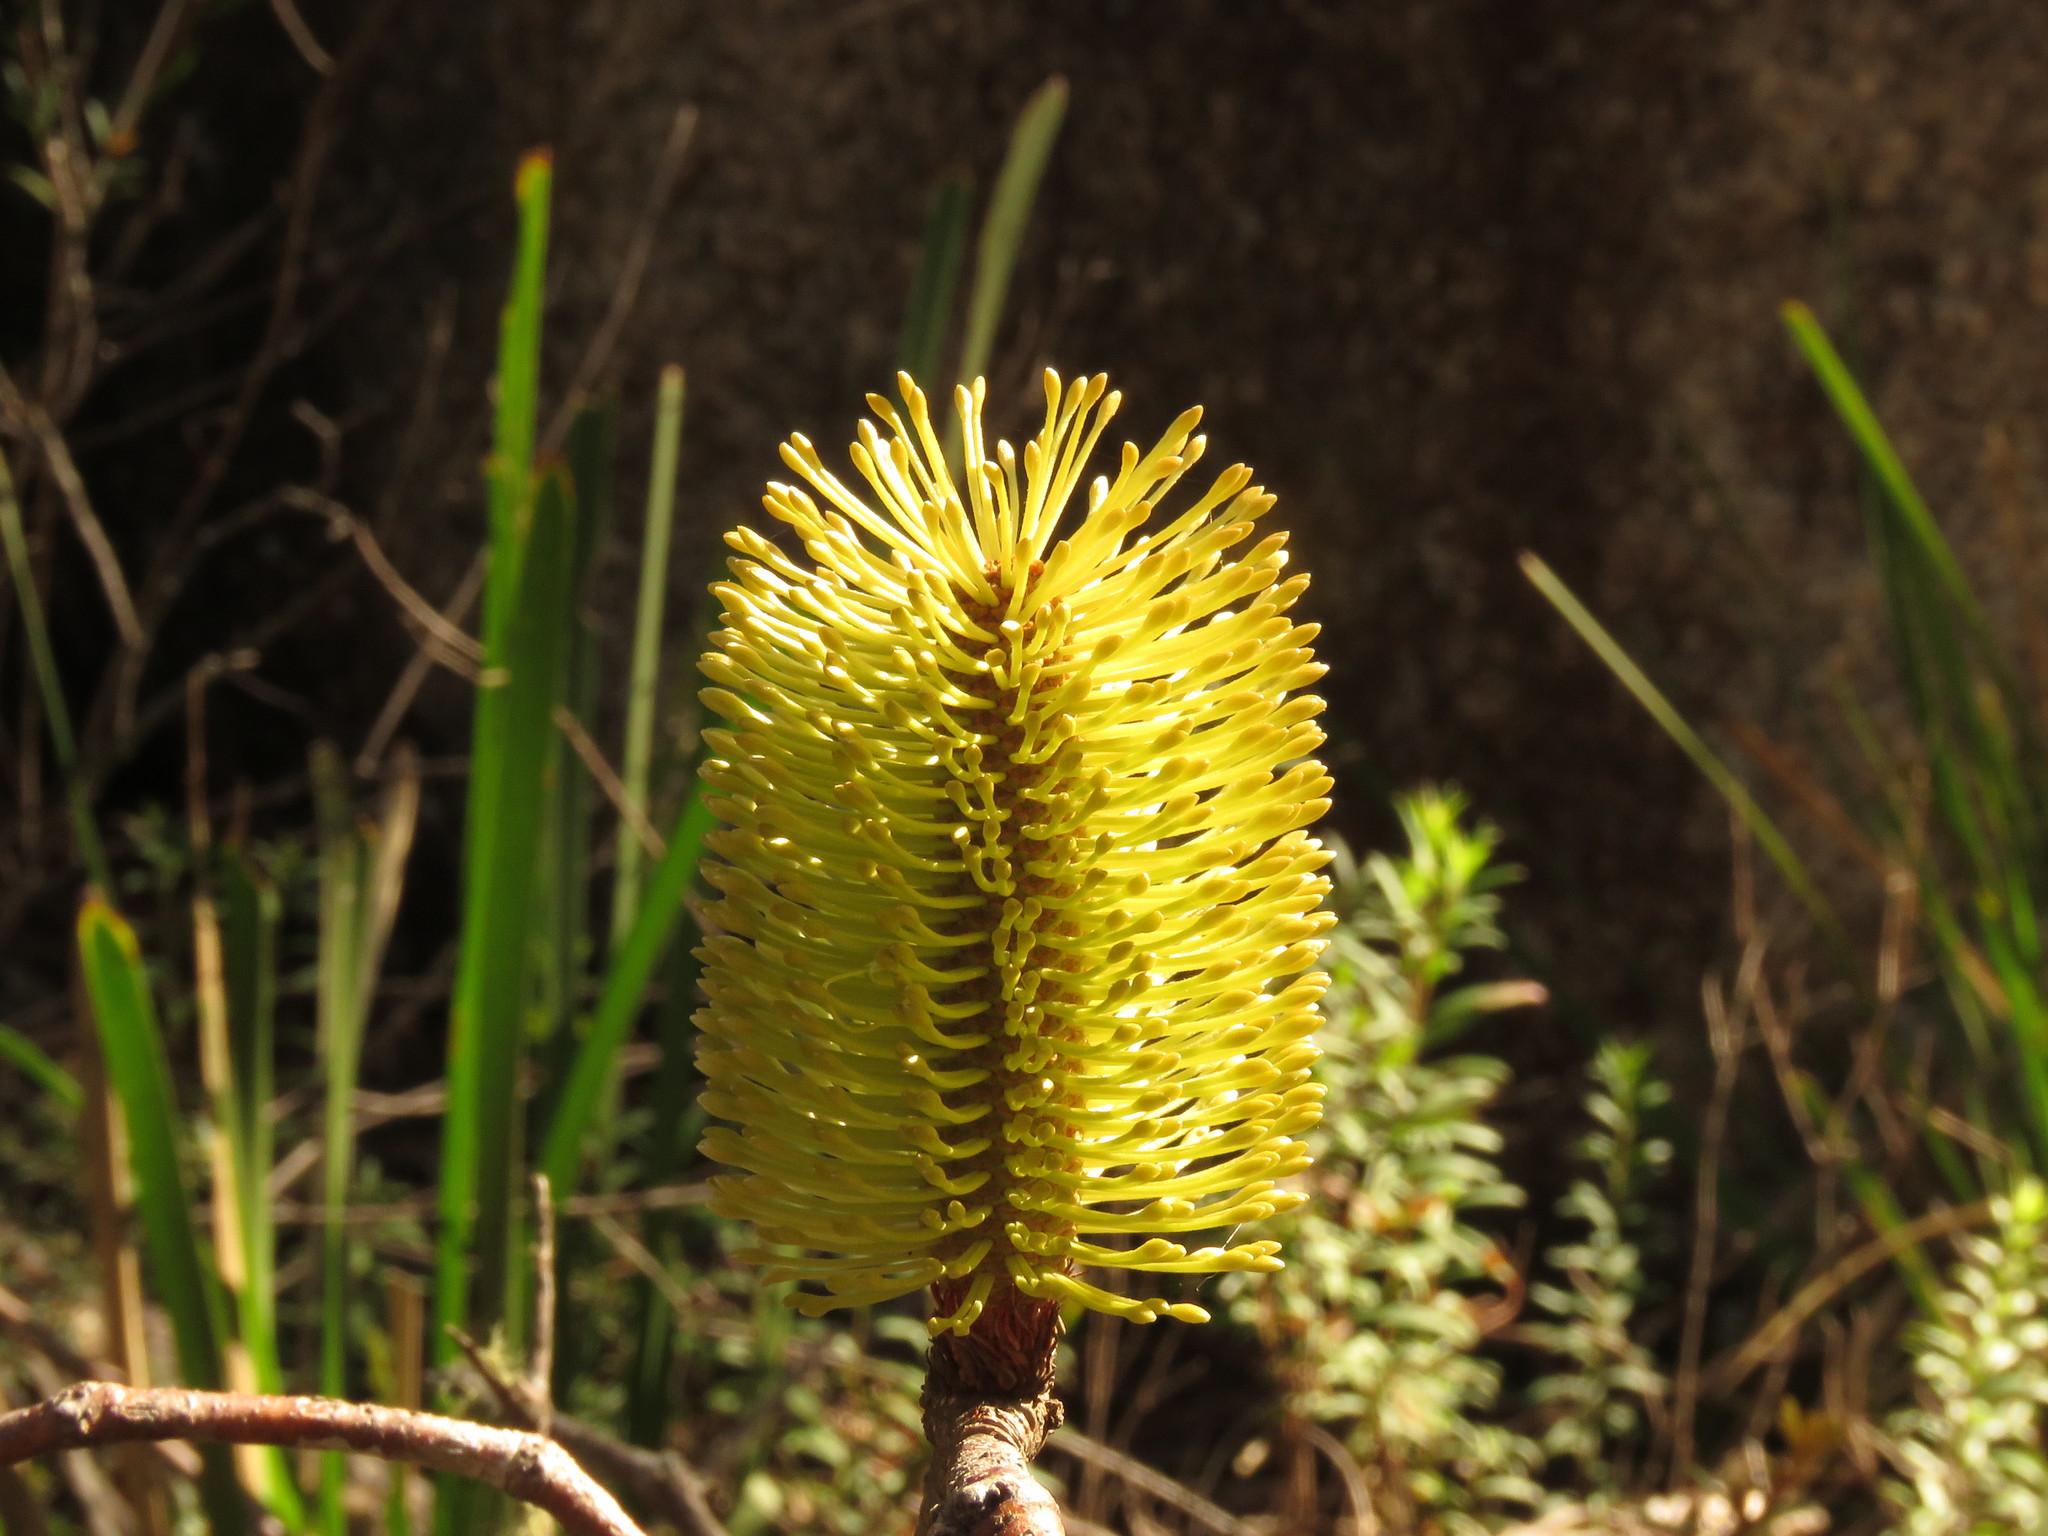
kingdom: Plantae
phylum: Tracheophyta
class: Magnoliopsida
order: Proteales
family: Proteaceae
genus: Banksia
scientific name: Banksia canei
